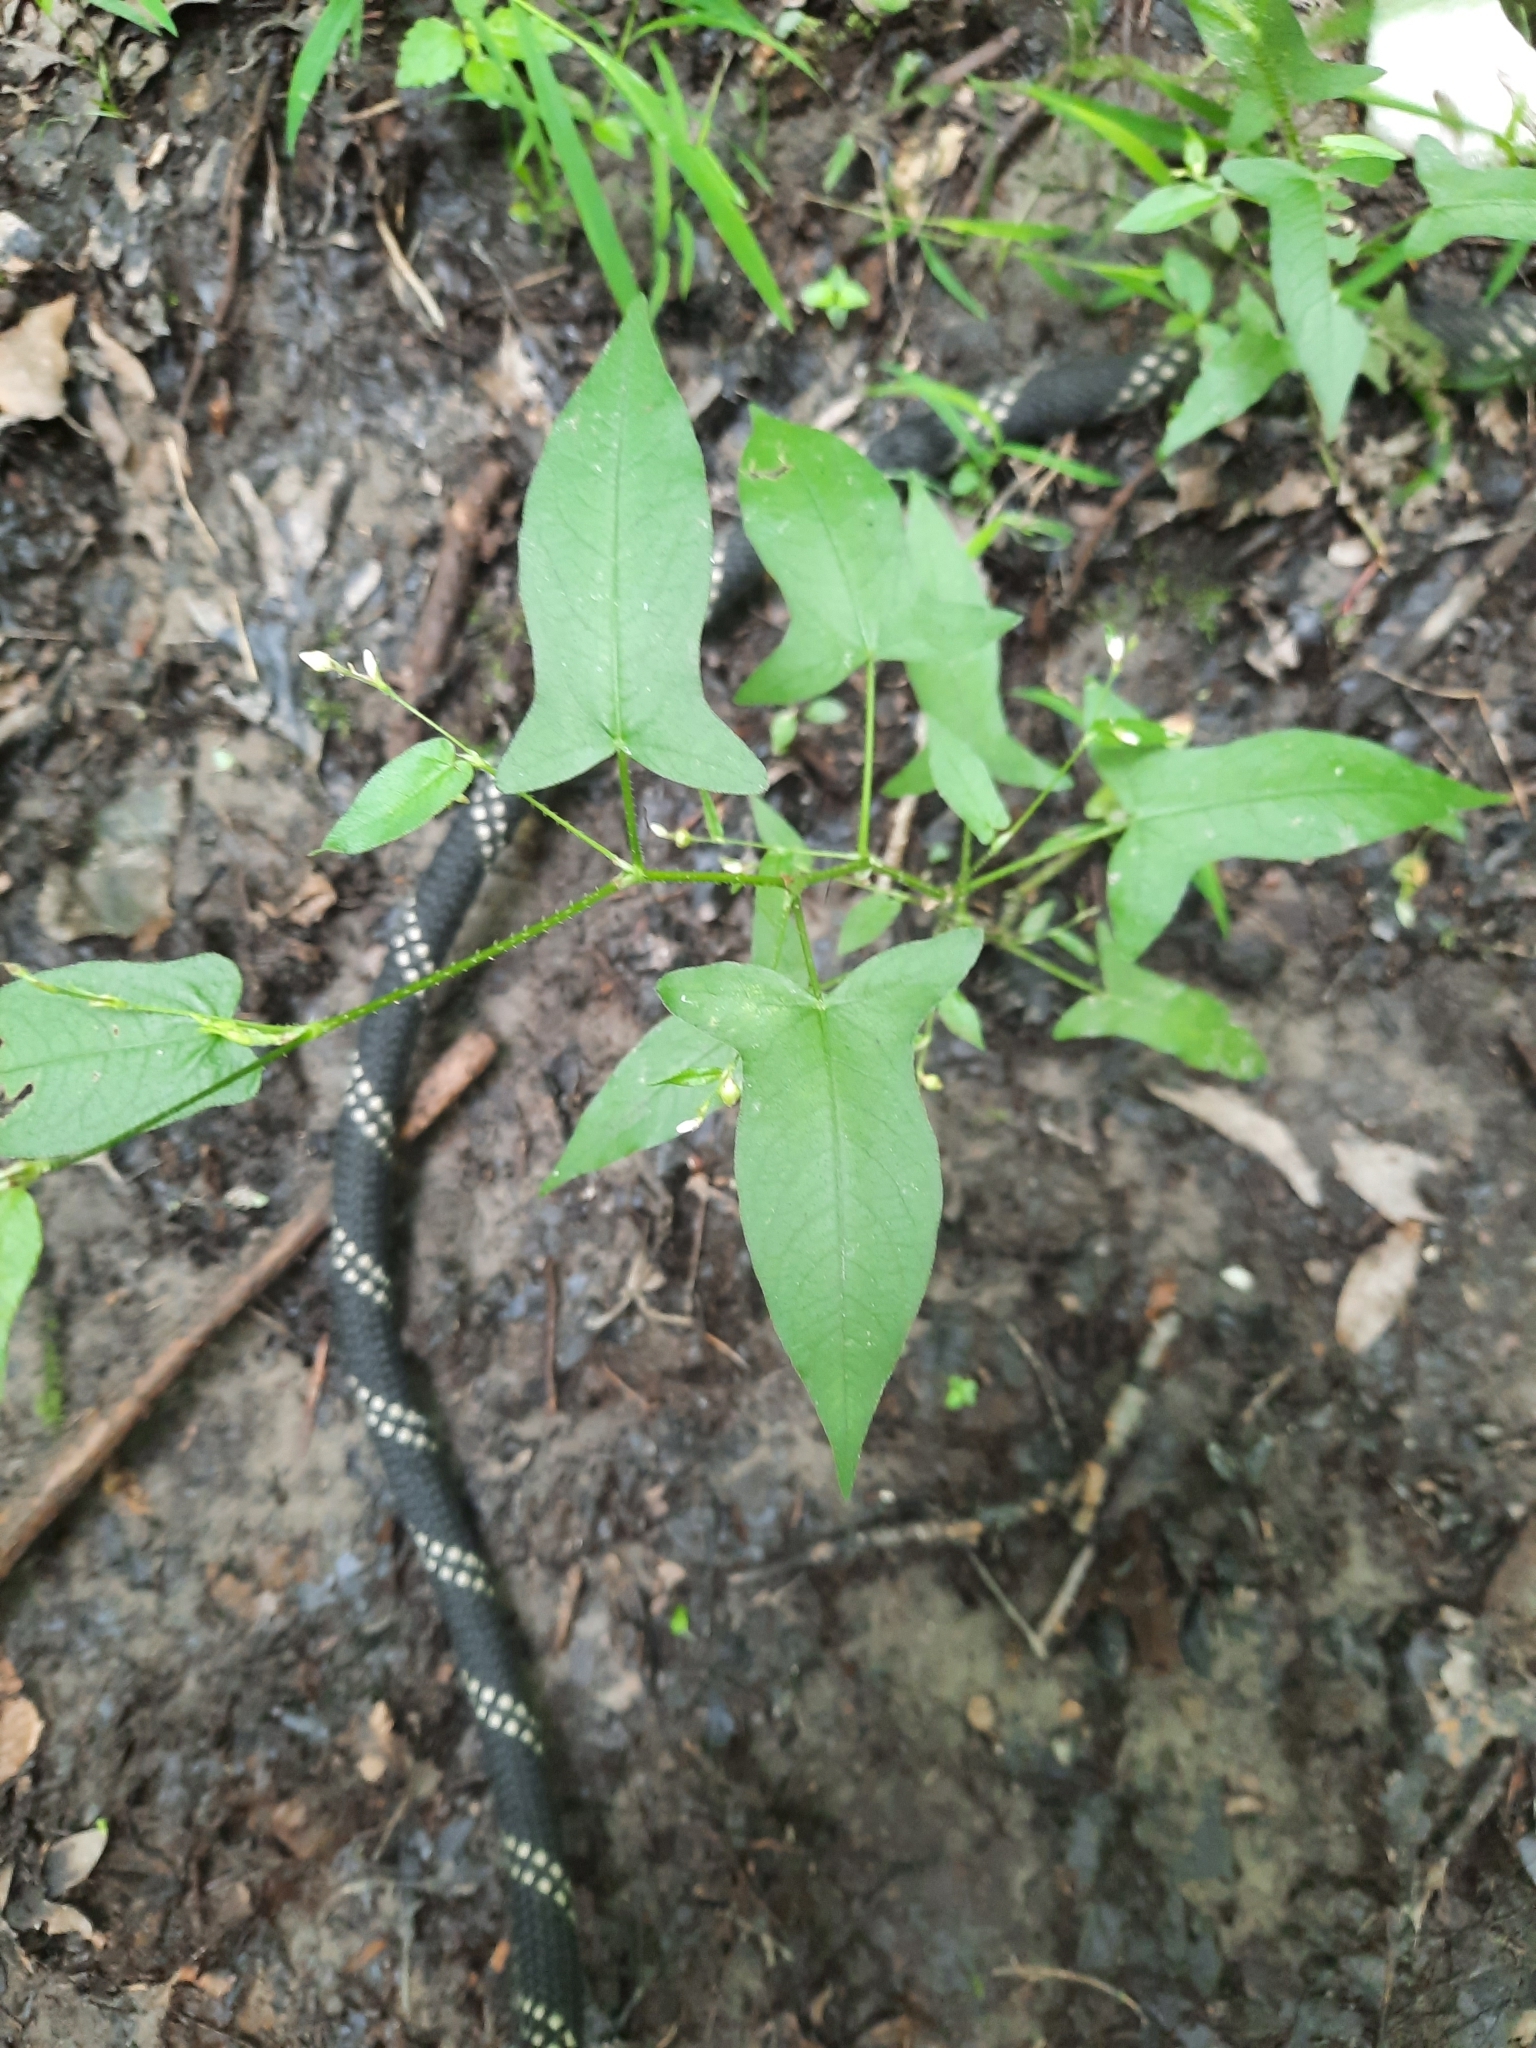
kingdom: Plantae
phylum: Tracheophyta
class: Magnoliopsida
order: Caryophyllales
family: Polygonaceae
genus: Persicaria
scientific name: Persicaria arifolia
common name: Halberd-leaved tear-thumb
